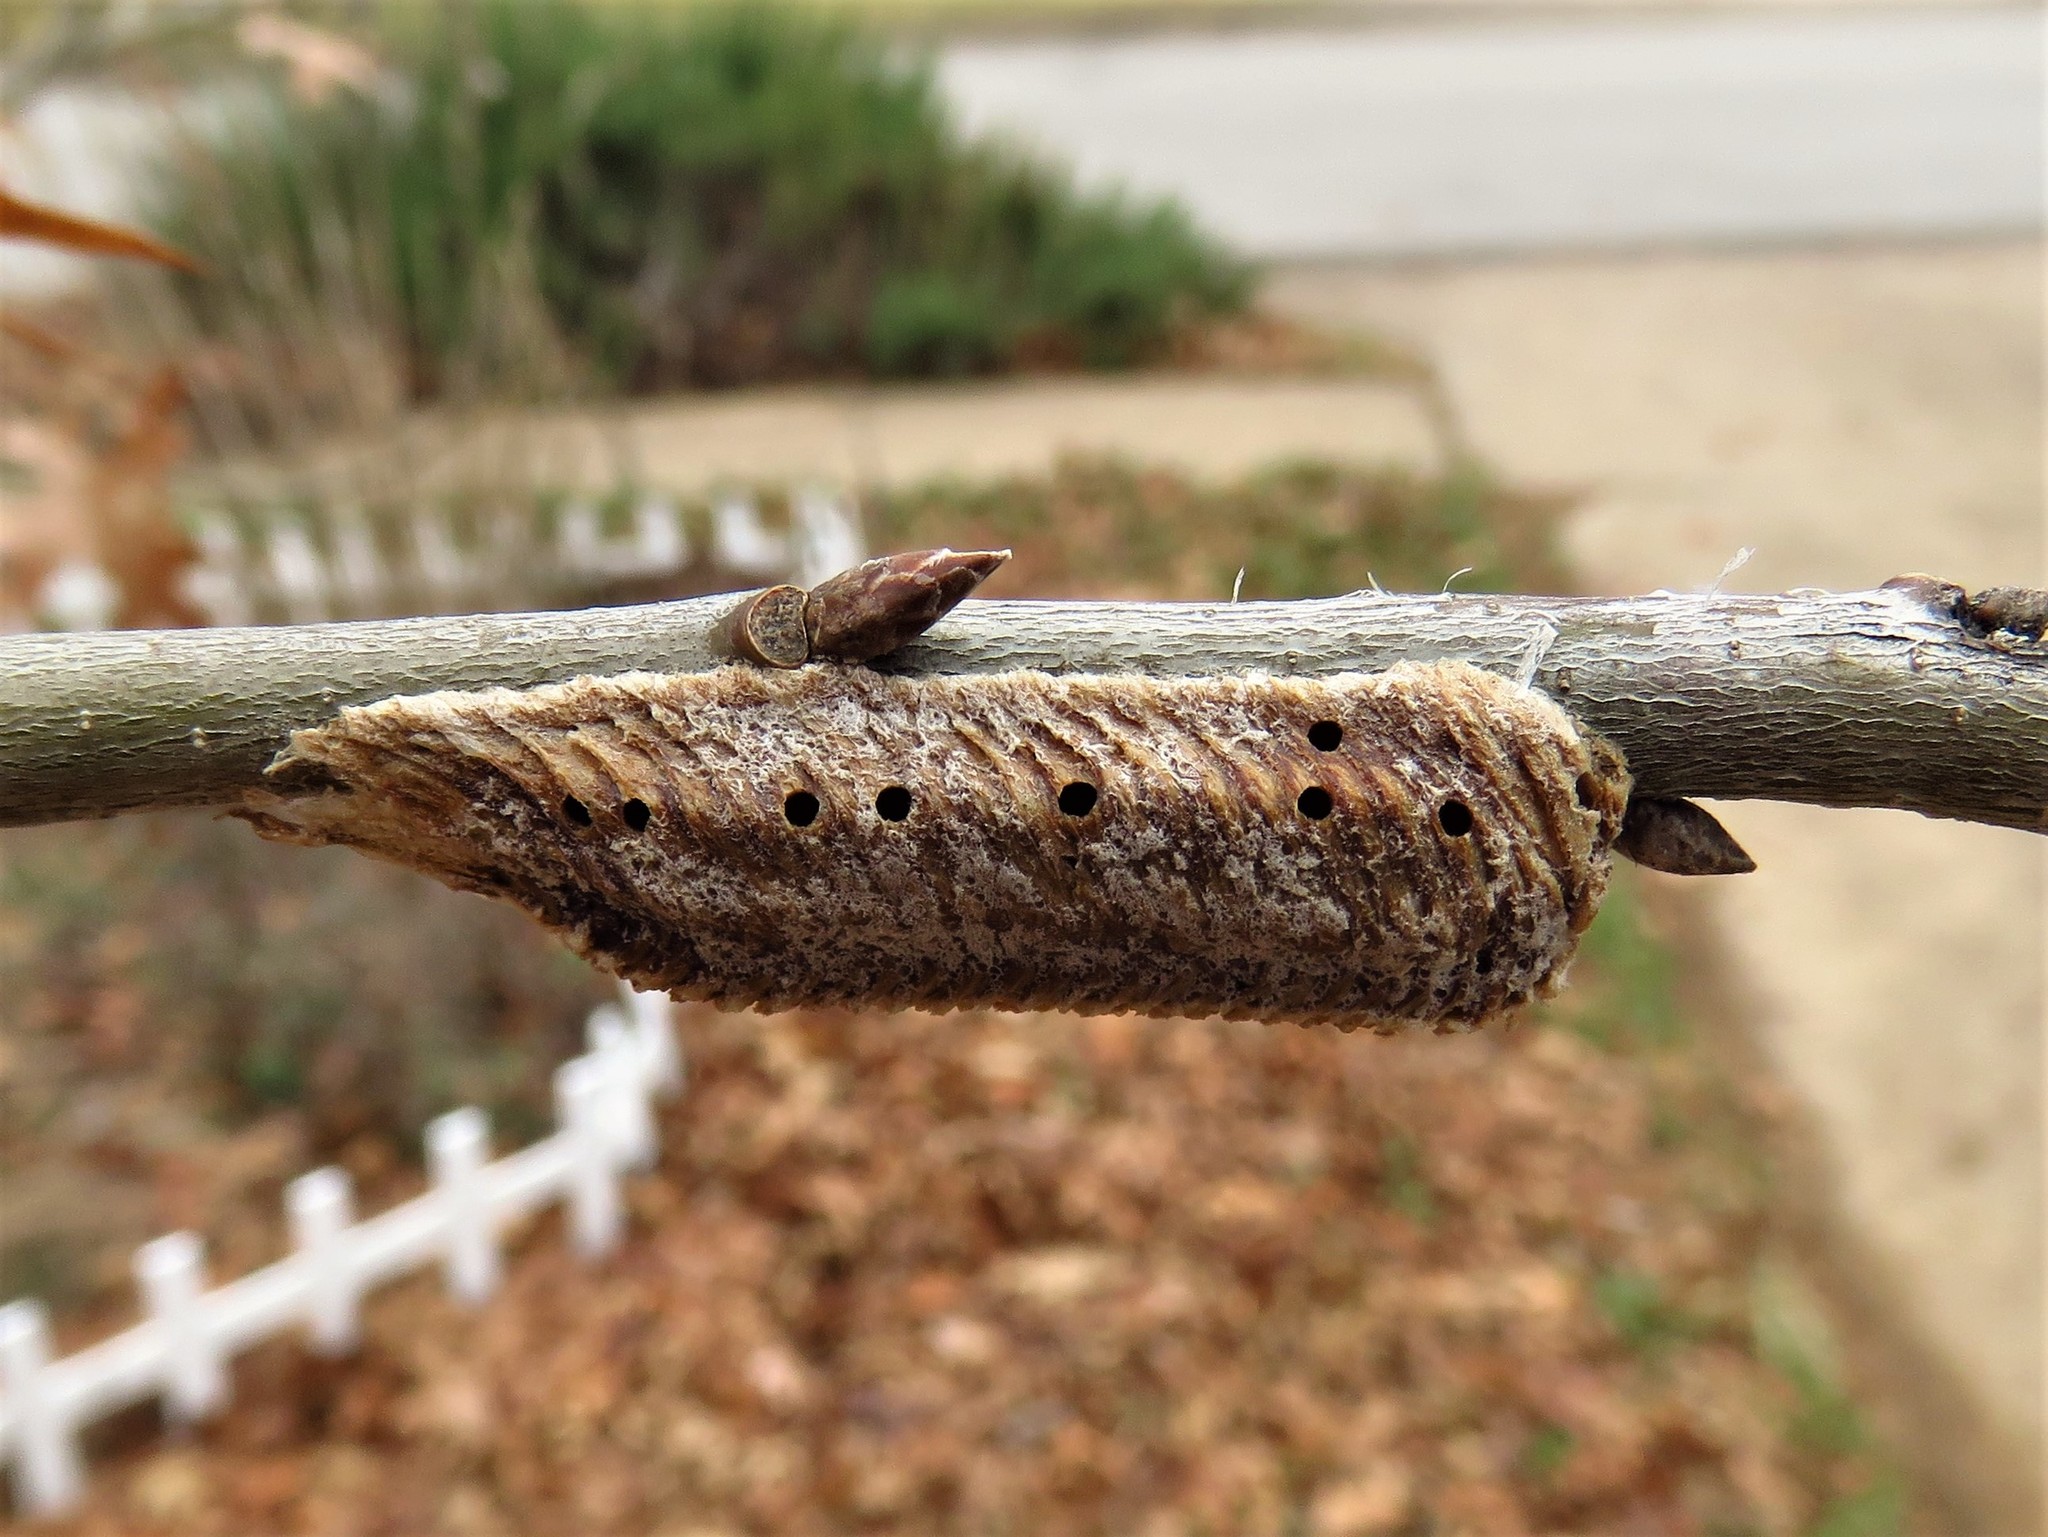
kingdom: Animalia
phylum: Arthropoda
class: Insecta
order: Mantodea
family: Mantidae
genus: Stagmomantis
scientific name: Stagmomantis carolina
